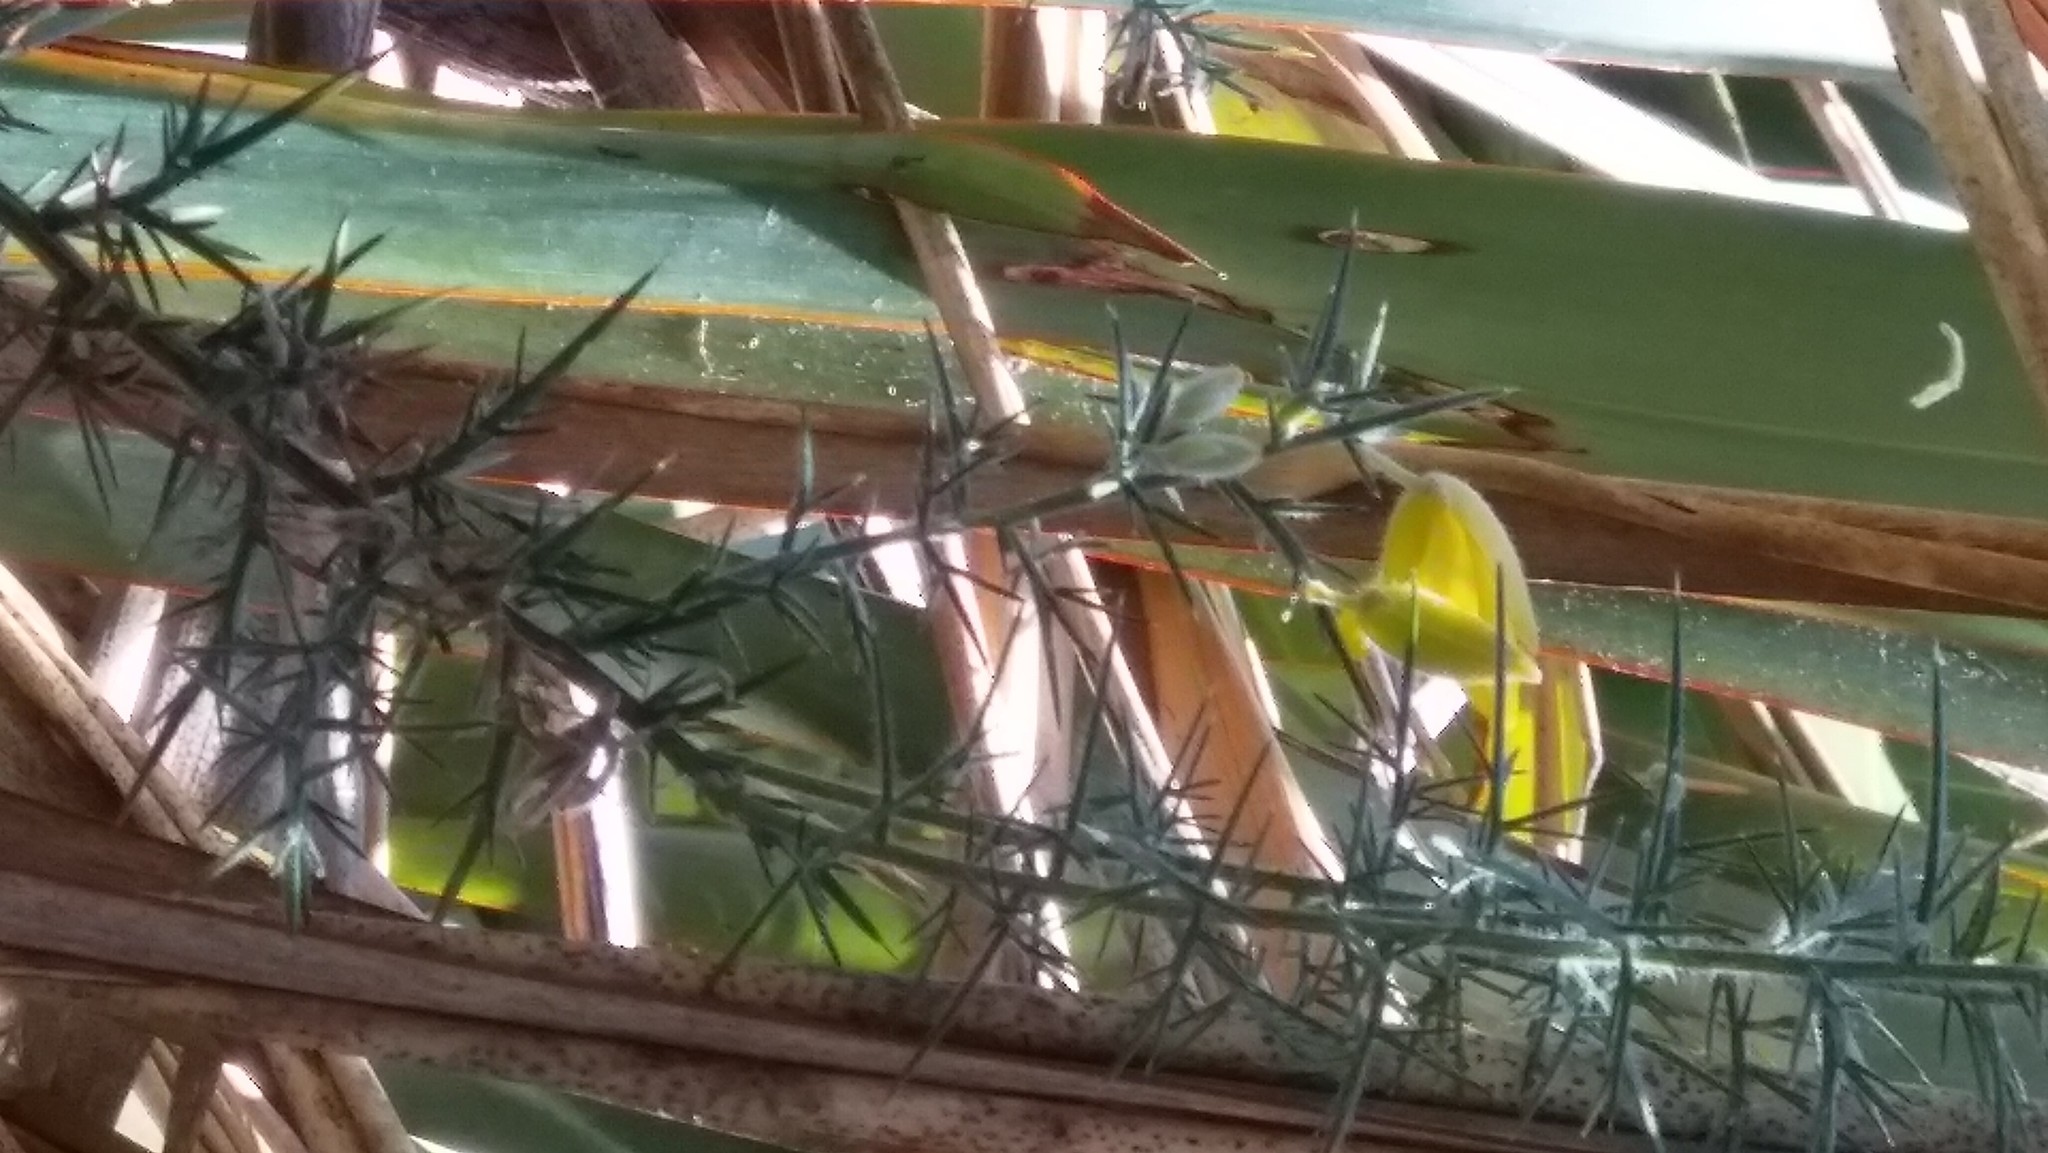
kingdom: Plantae
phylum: Tracheophyta
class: Magnoliopsida
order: Fabales
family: Fabaceae
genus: Ulex
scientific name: Ulex europaeus
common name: Common gorse
